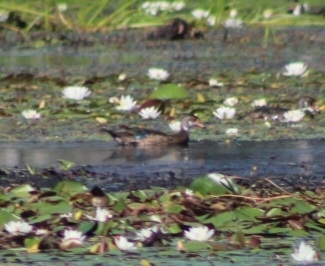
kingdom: Animalia
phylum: Chordata
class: Aves
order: Anseriformes
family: Anatidae
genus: Aix
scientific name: Aix sponsa
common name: Wood duck
